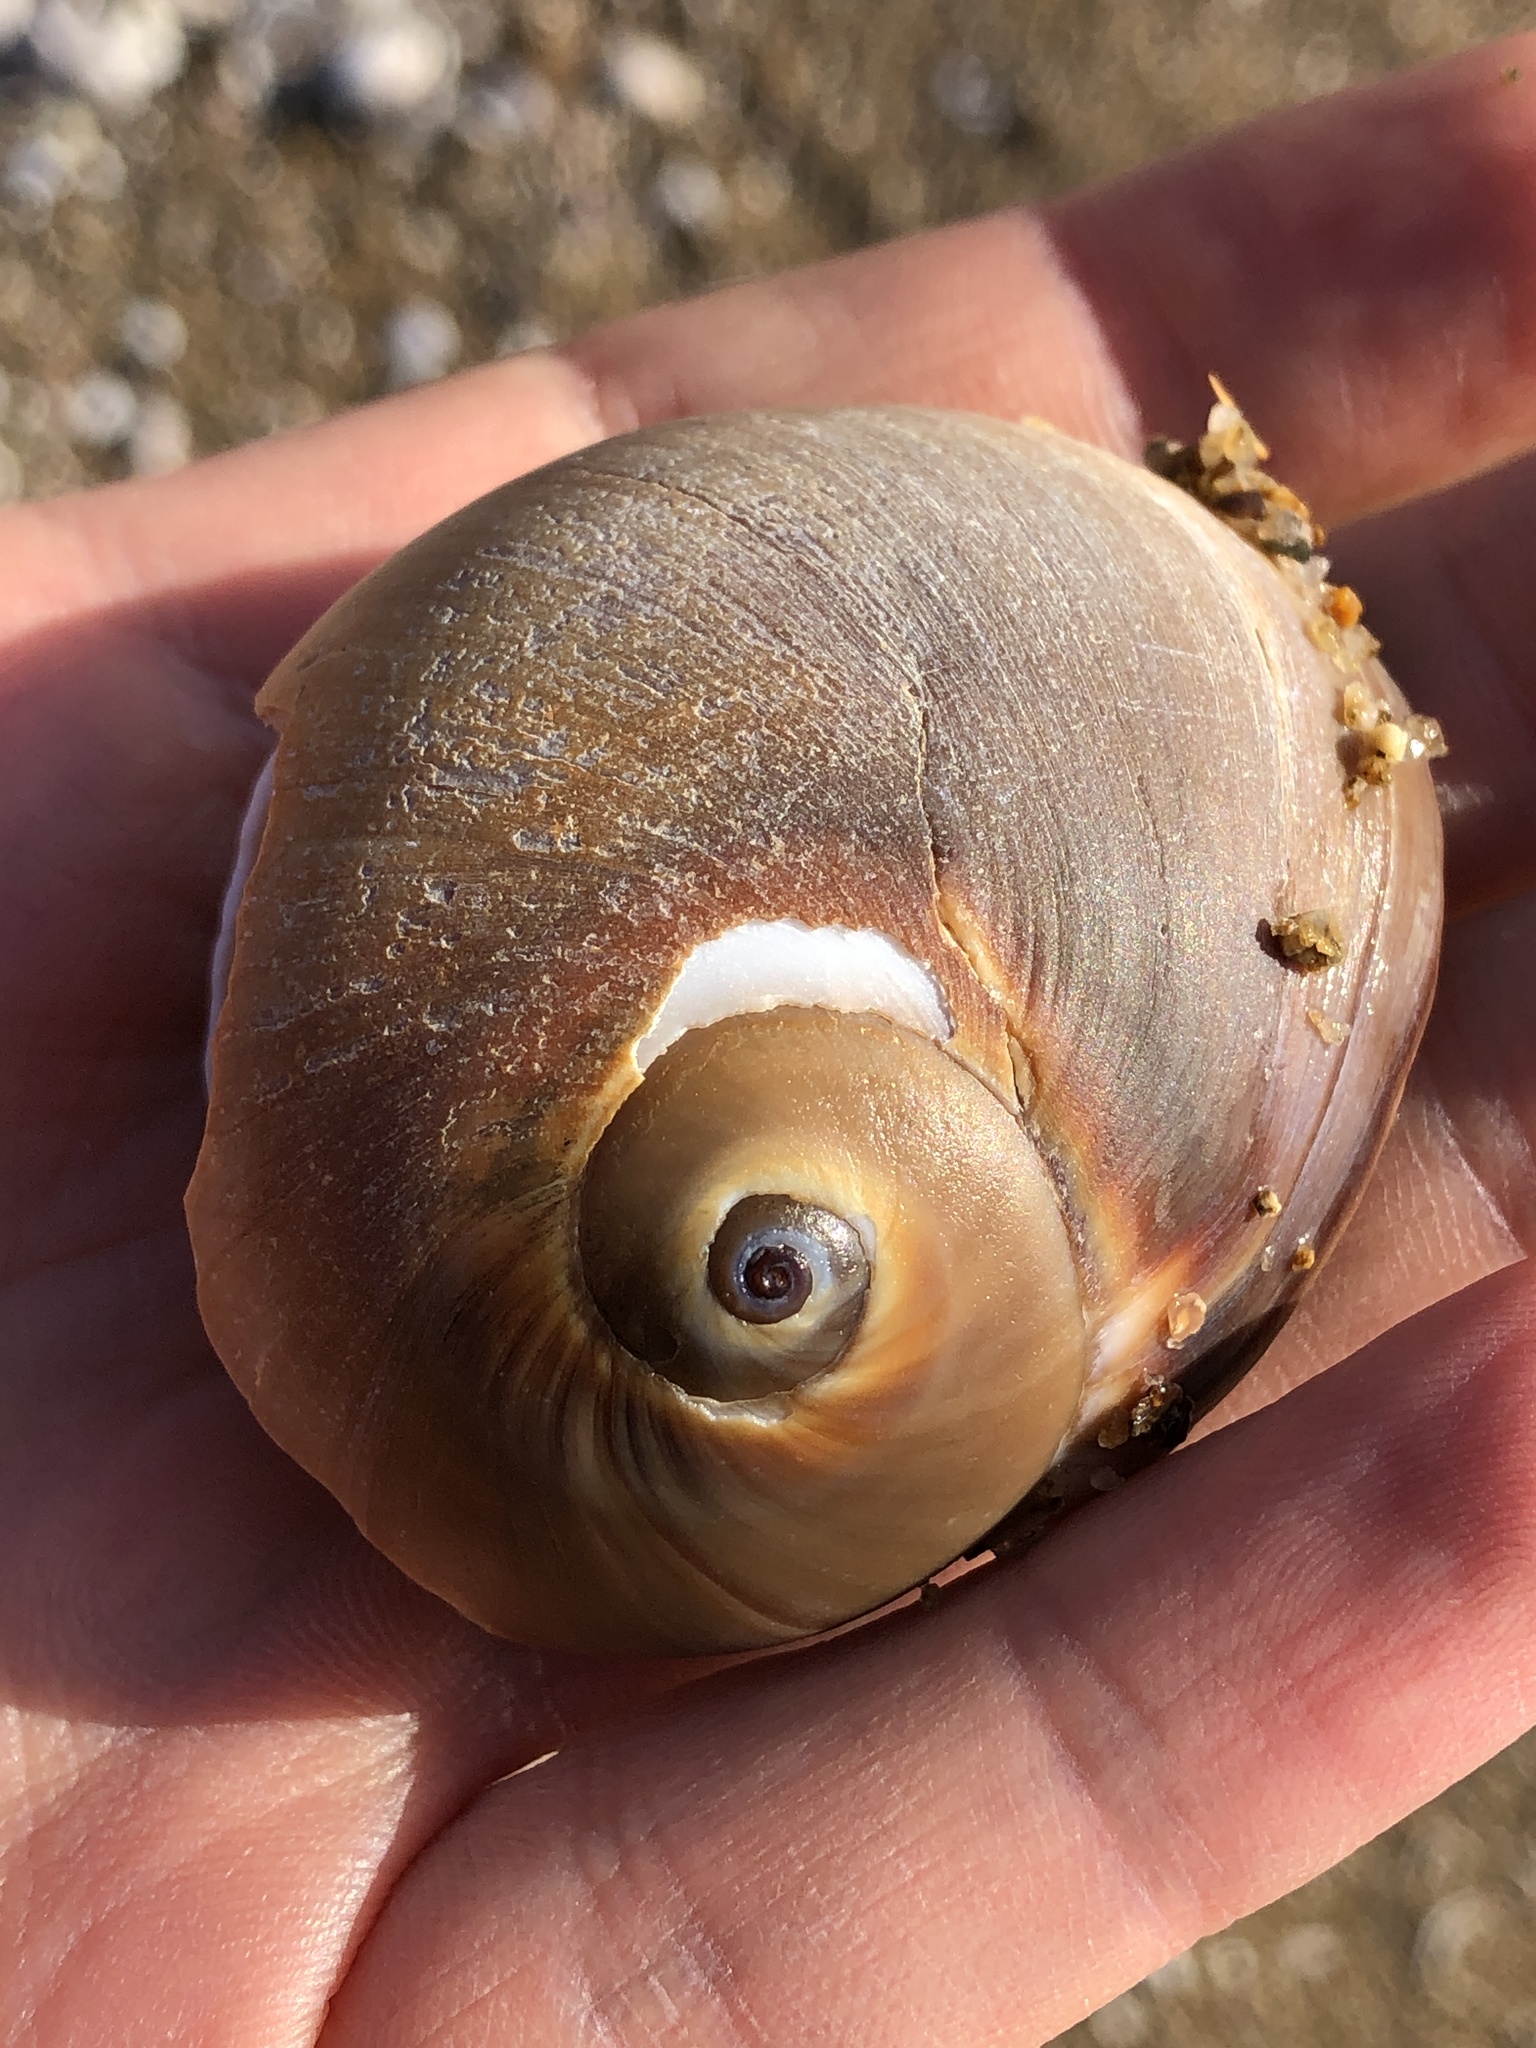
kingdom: Animalia
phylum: Mollusca
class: Gastropoda
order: Littorinimorpha
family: Naticidae
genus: Neverita
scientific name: Neverita didyma
